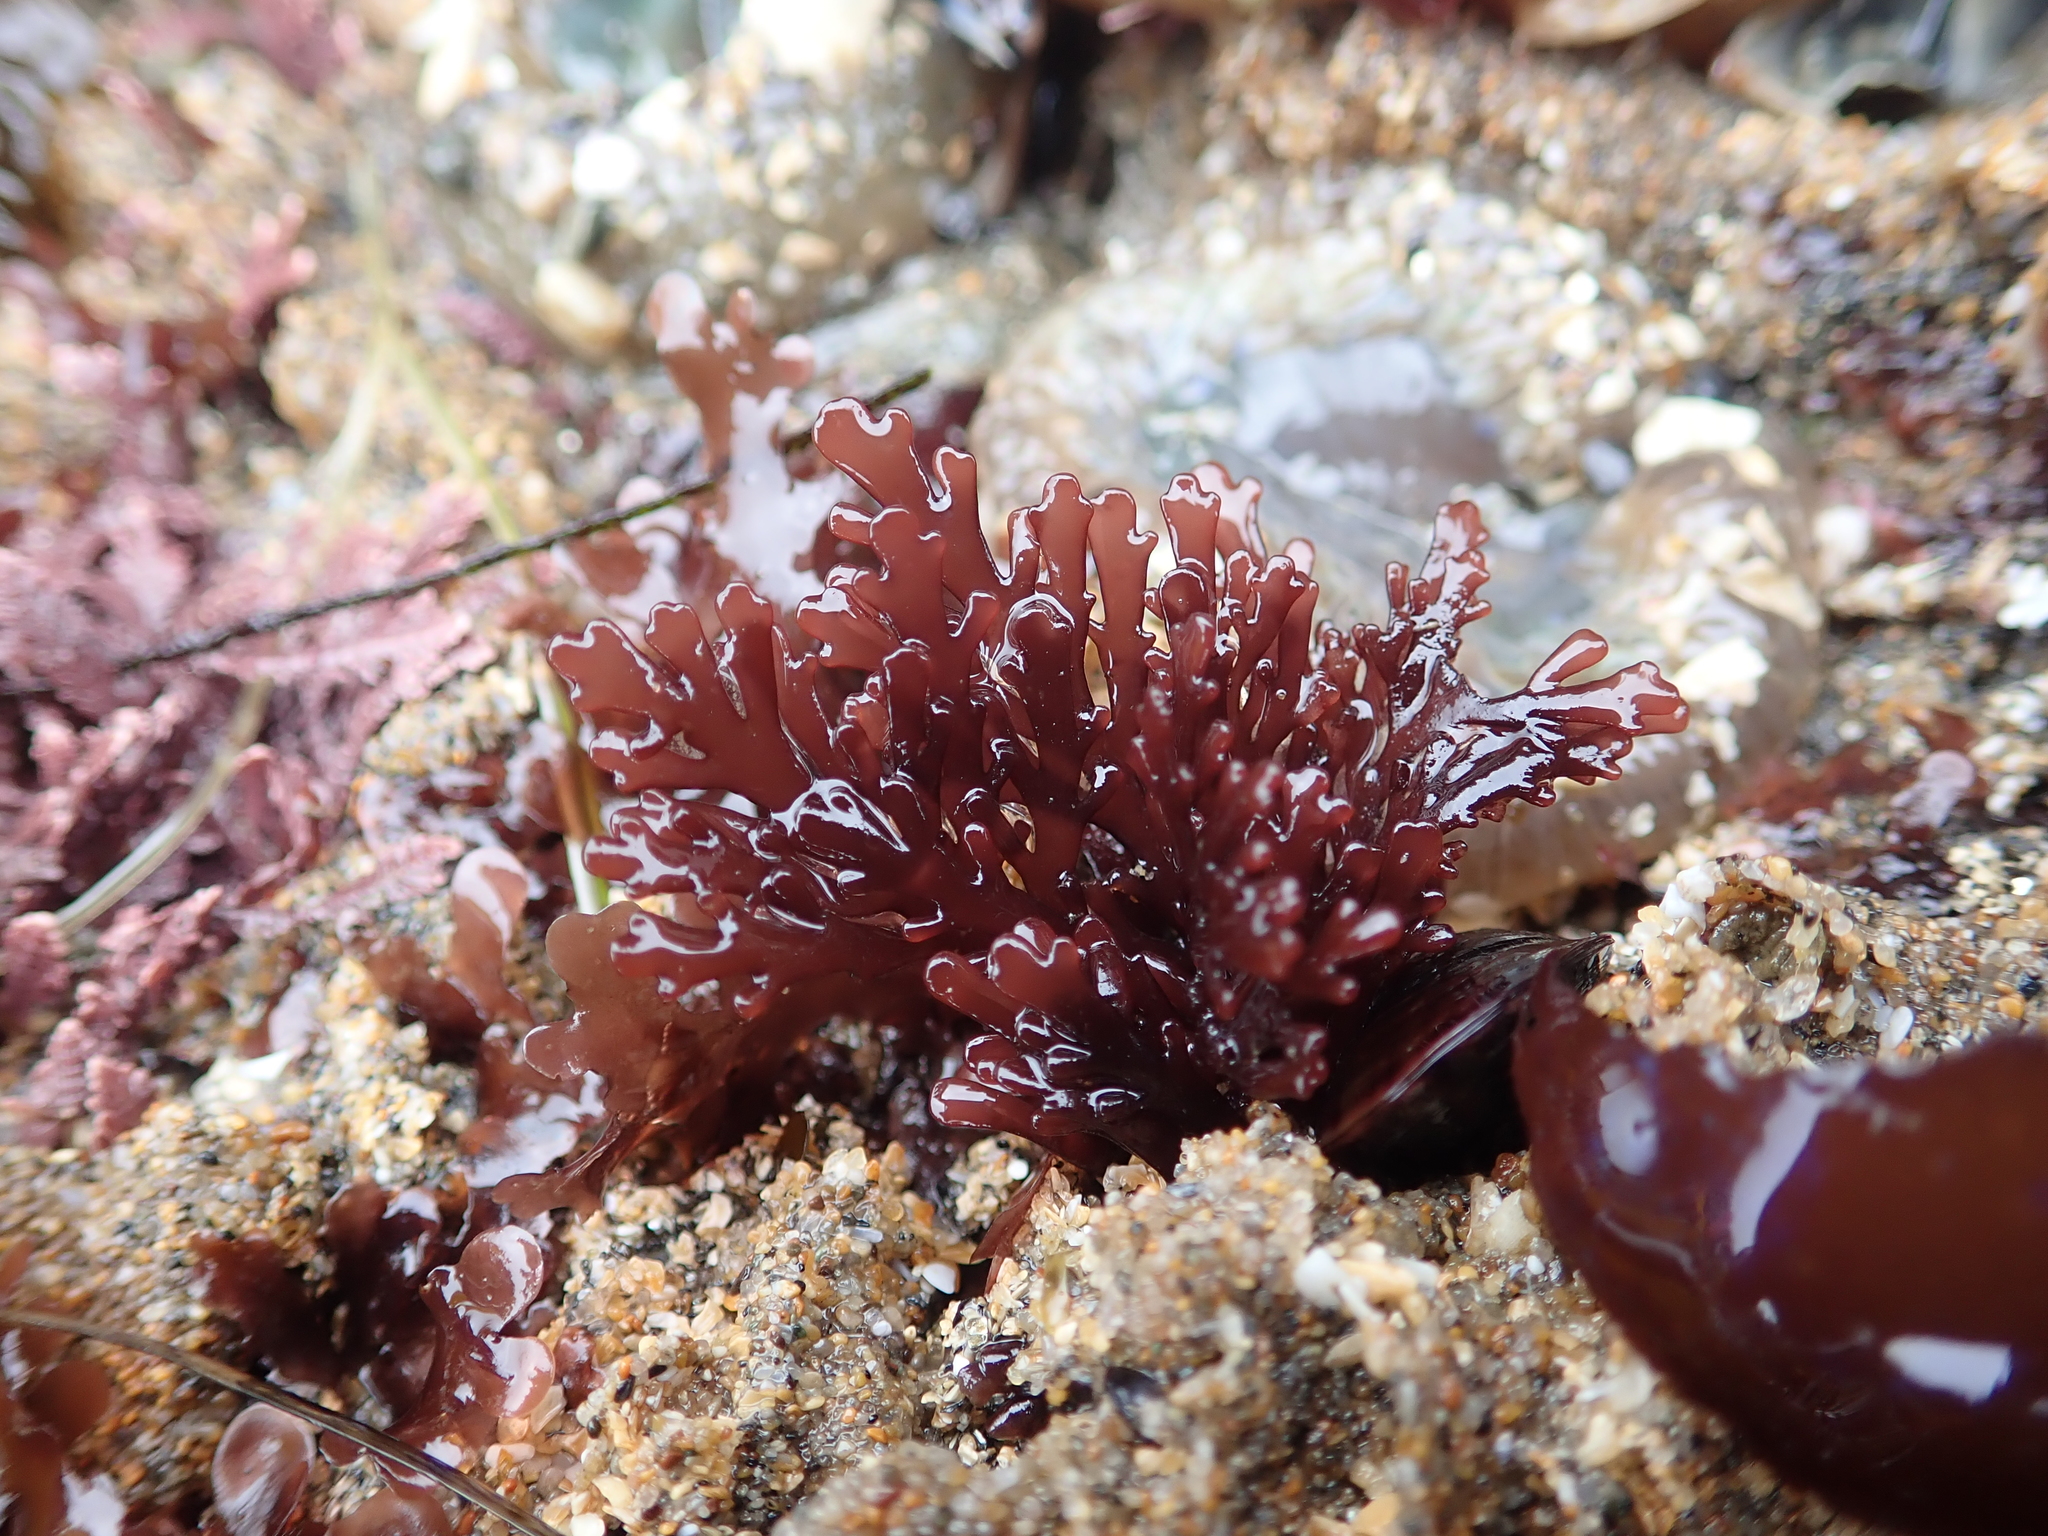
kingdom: Plantae
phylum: Rhodophyta
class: Florideophyceae
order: Ceramiales
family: Rhodomelaceae
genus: Osmundea
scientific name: Osmundea spectabilis
